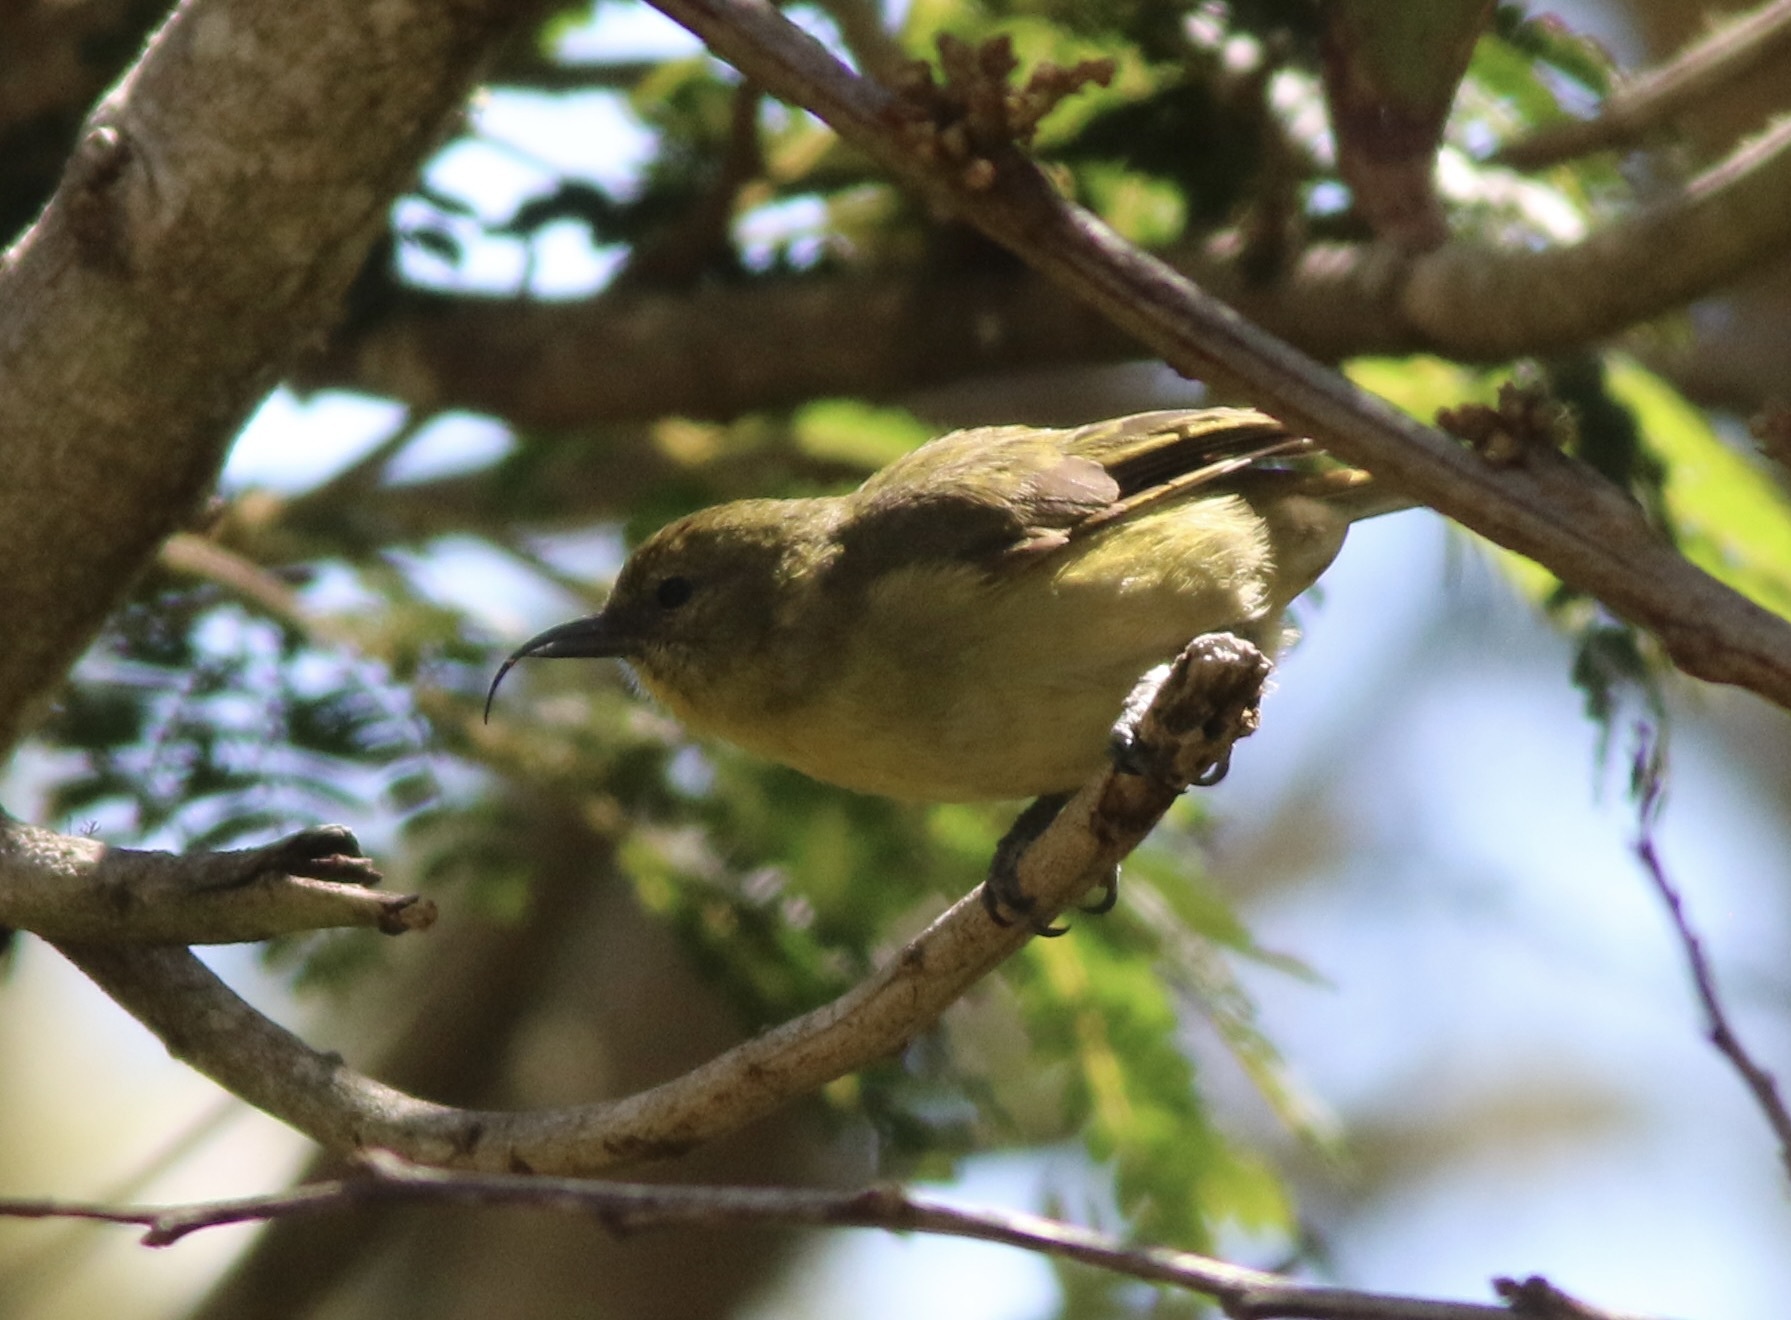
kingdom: Animalia
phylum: Chordata
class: Aves
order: Passeriformes
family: Fringillidae
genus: Hemignathus
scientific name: Hemignathus wilsoni
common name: Akiapolaau
